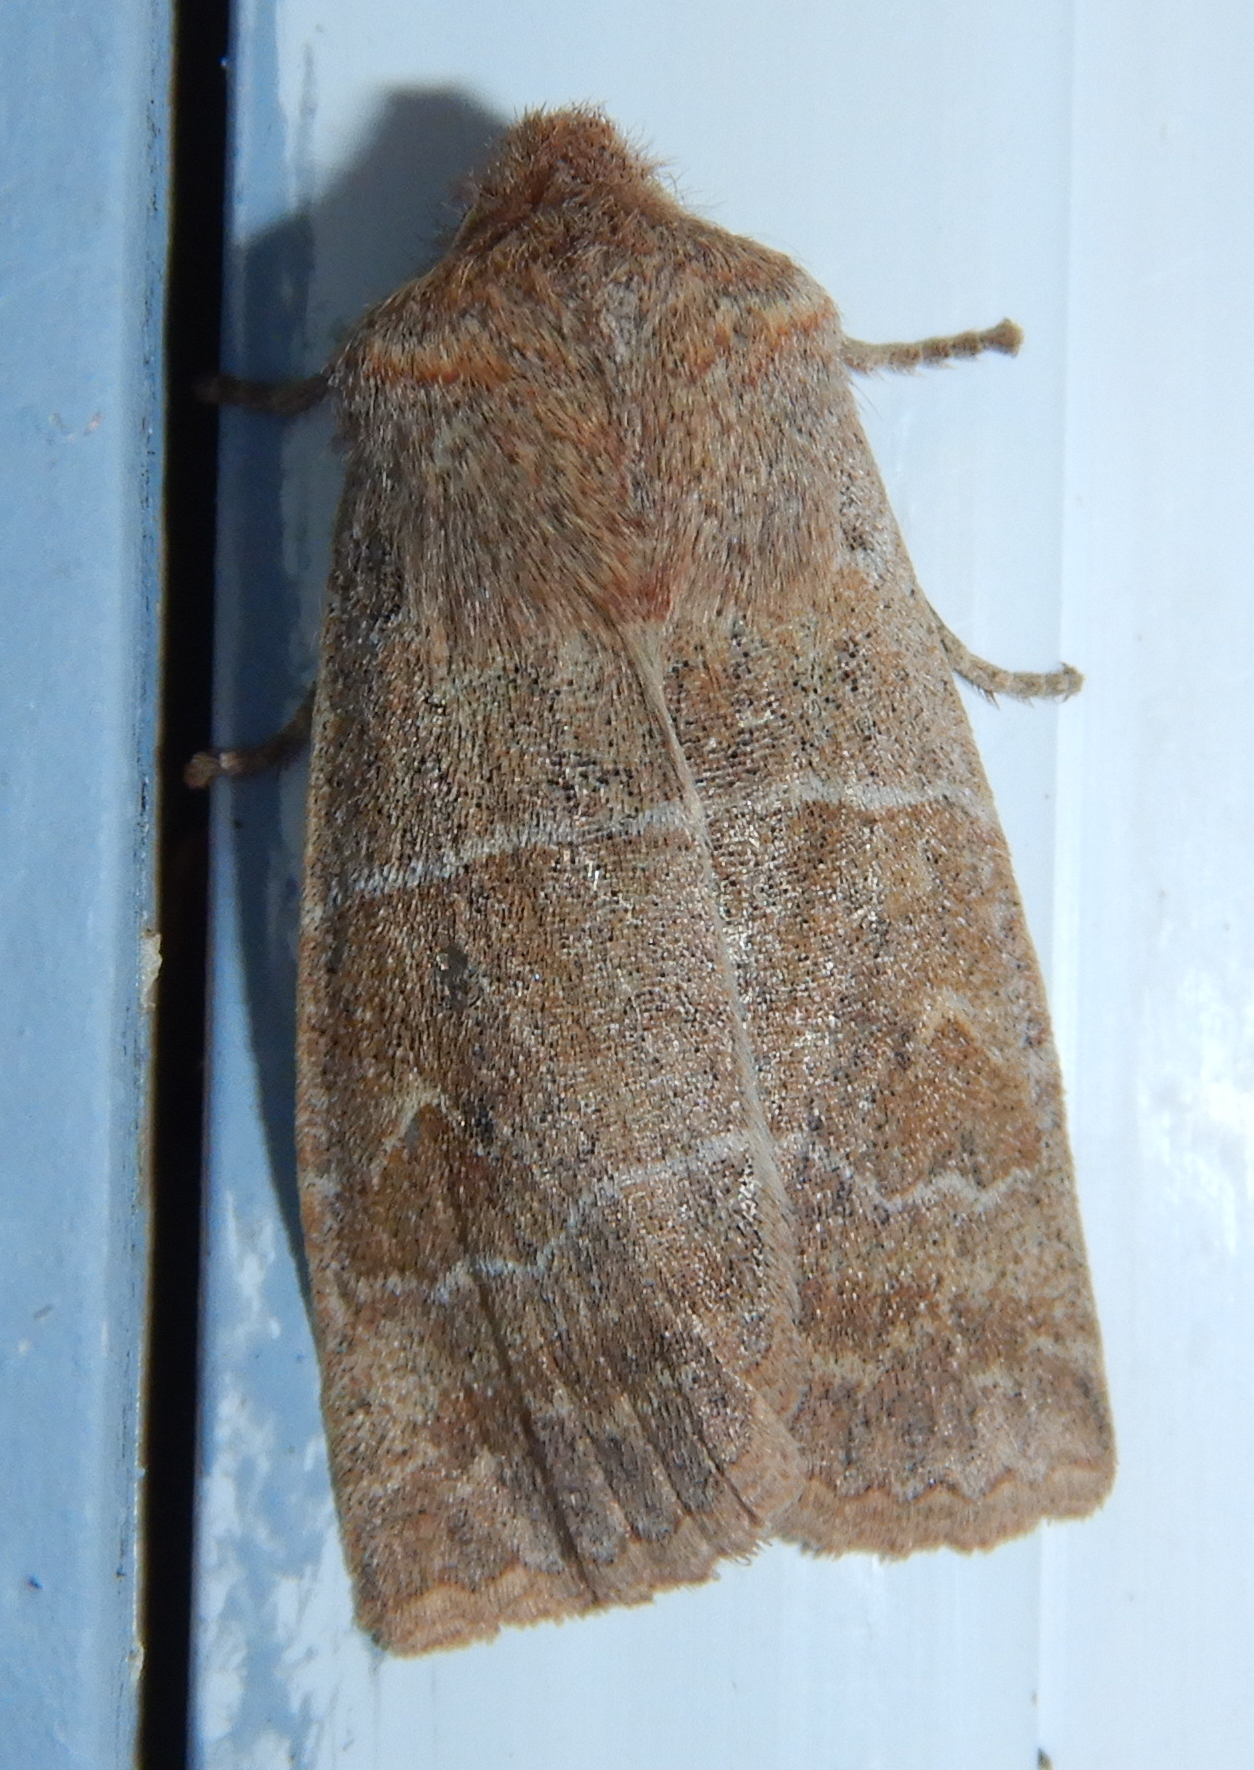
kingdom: Animalia
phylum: Arthropoda
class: Insecta
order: Lepidoptera
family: Noctuidae
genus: Eupsilia
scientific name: Eupsilia morrisoni
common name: Morrison's sallow
